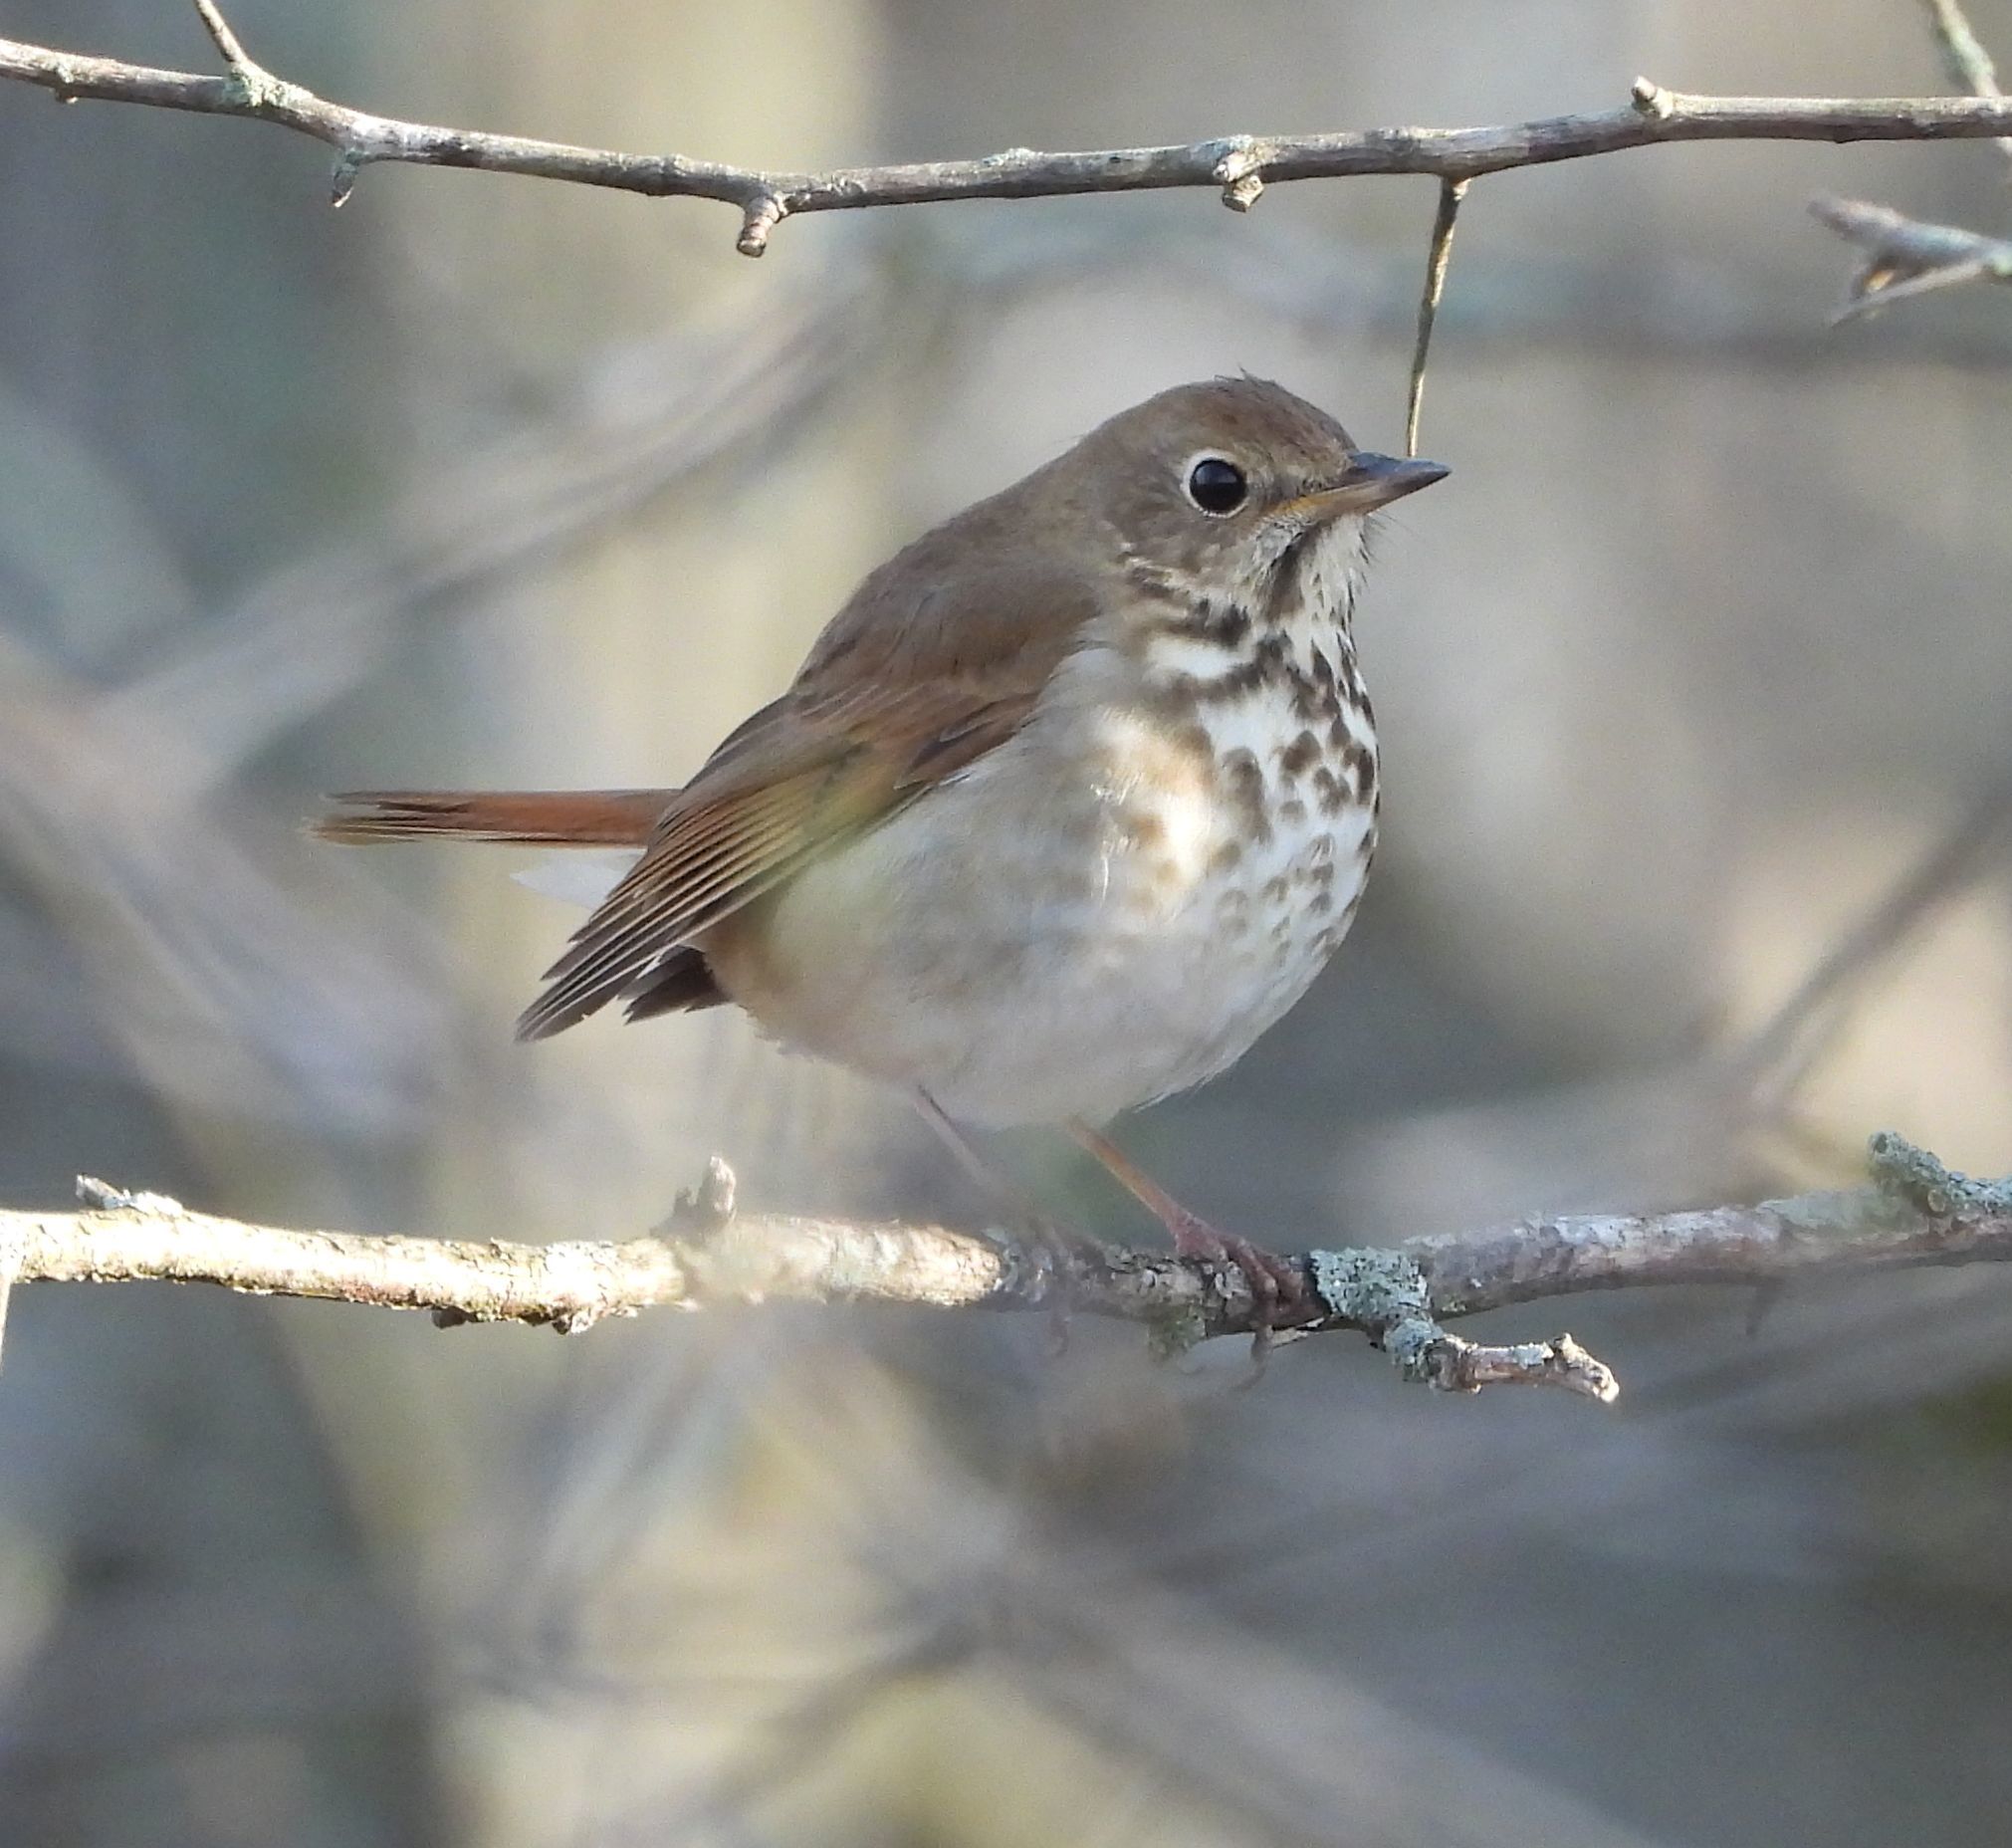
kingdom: Animalia
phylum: Chordata
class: Aves
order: Passeriformes
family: Turdidae
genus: Catharus
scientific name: Catharus guttatus
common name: Hermit thrush
